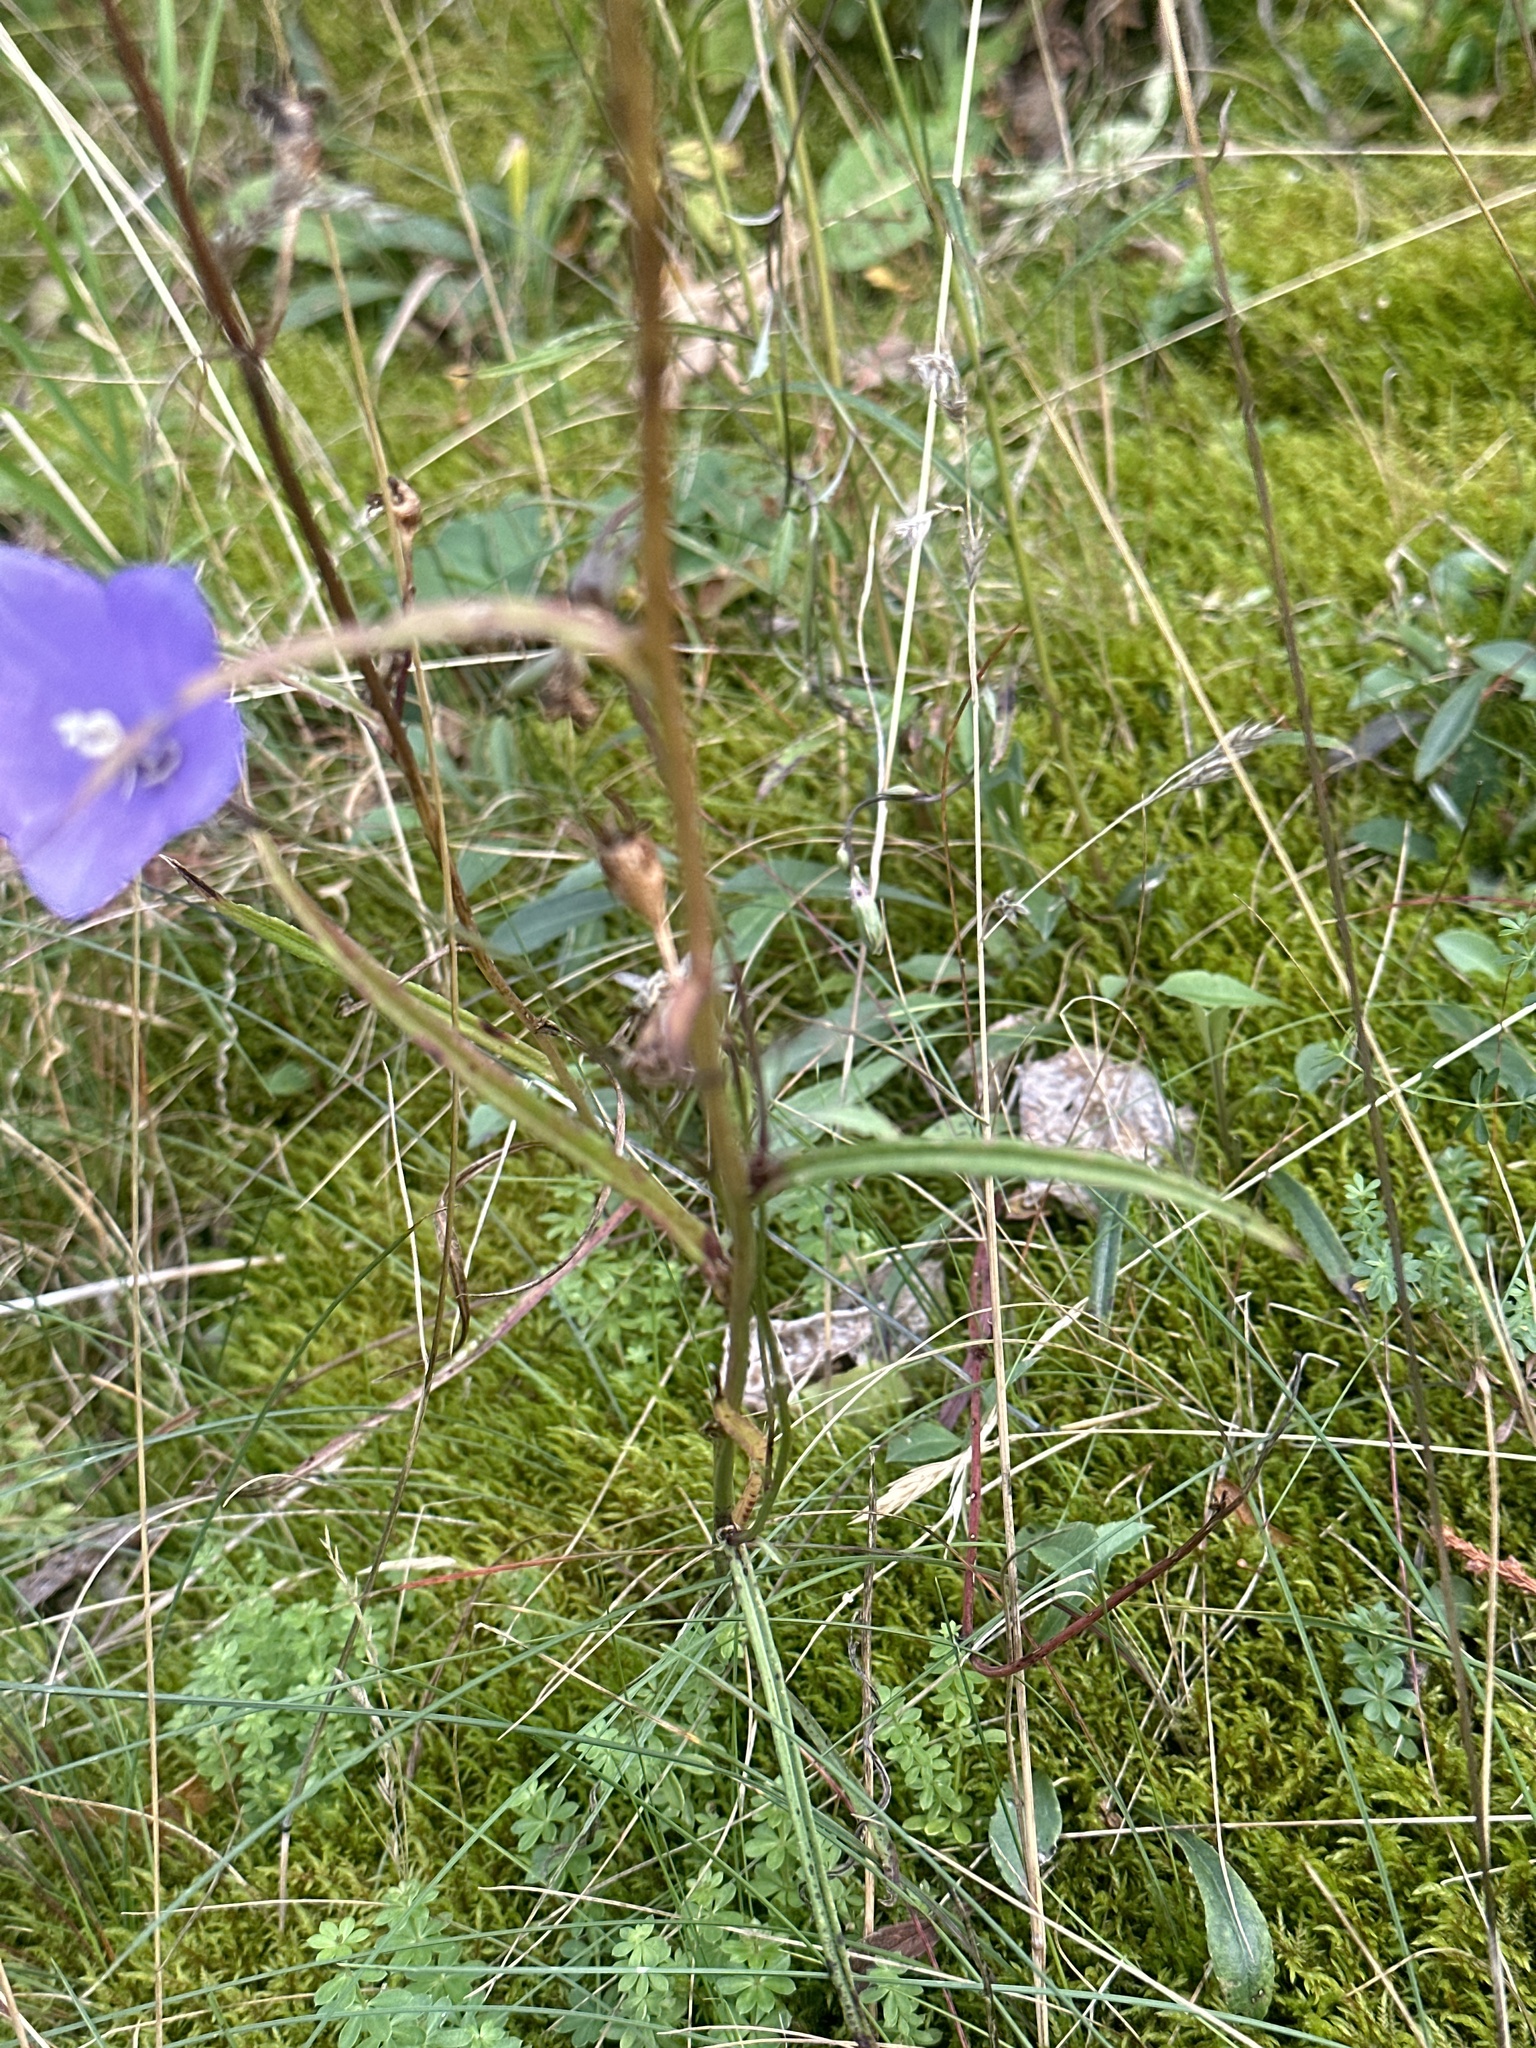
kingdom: Plantae
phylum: Tracheophyta
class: Magnoliopsida
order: Asterales
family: Campanulaceae
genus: Campanula
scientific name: Campanula persicifolia
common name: Peach-leaved bellflower
